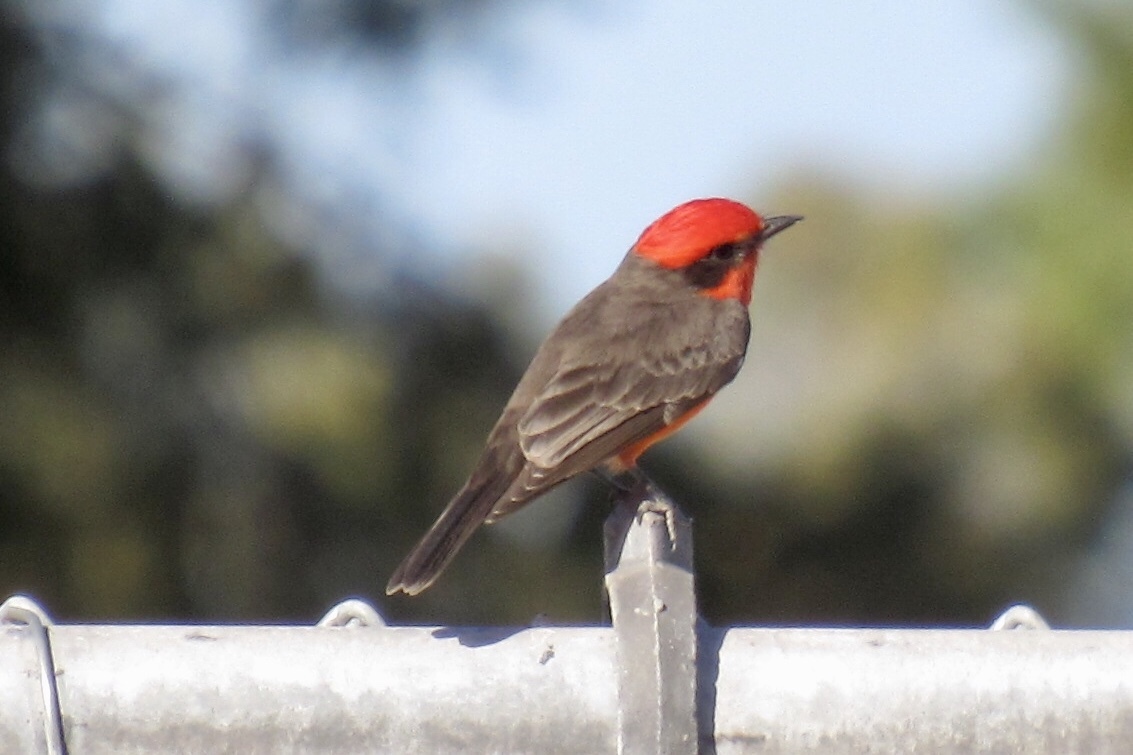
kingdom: Animalia
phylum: Chordata
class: Aves
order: Passeriformes
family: Tyrannidae
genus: Pyrocephalus
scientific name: Pyrocephalus rubinus
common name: Vermilion flycatcher
